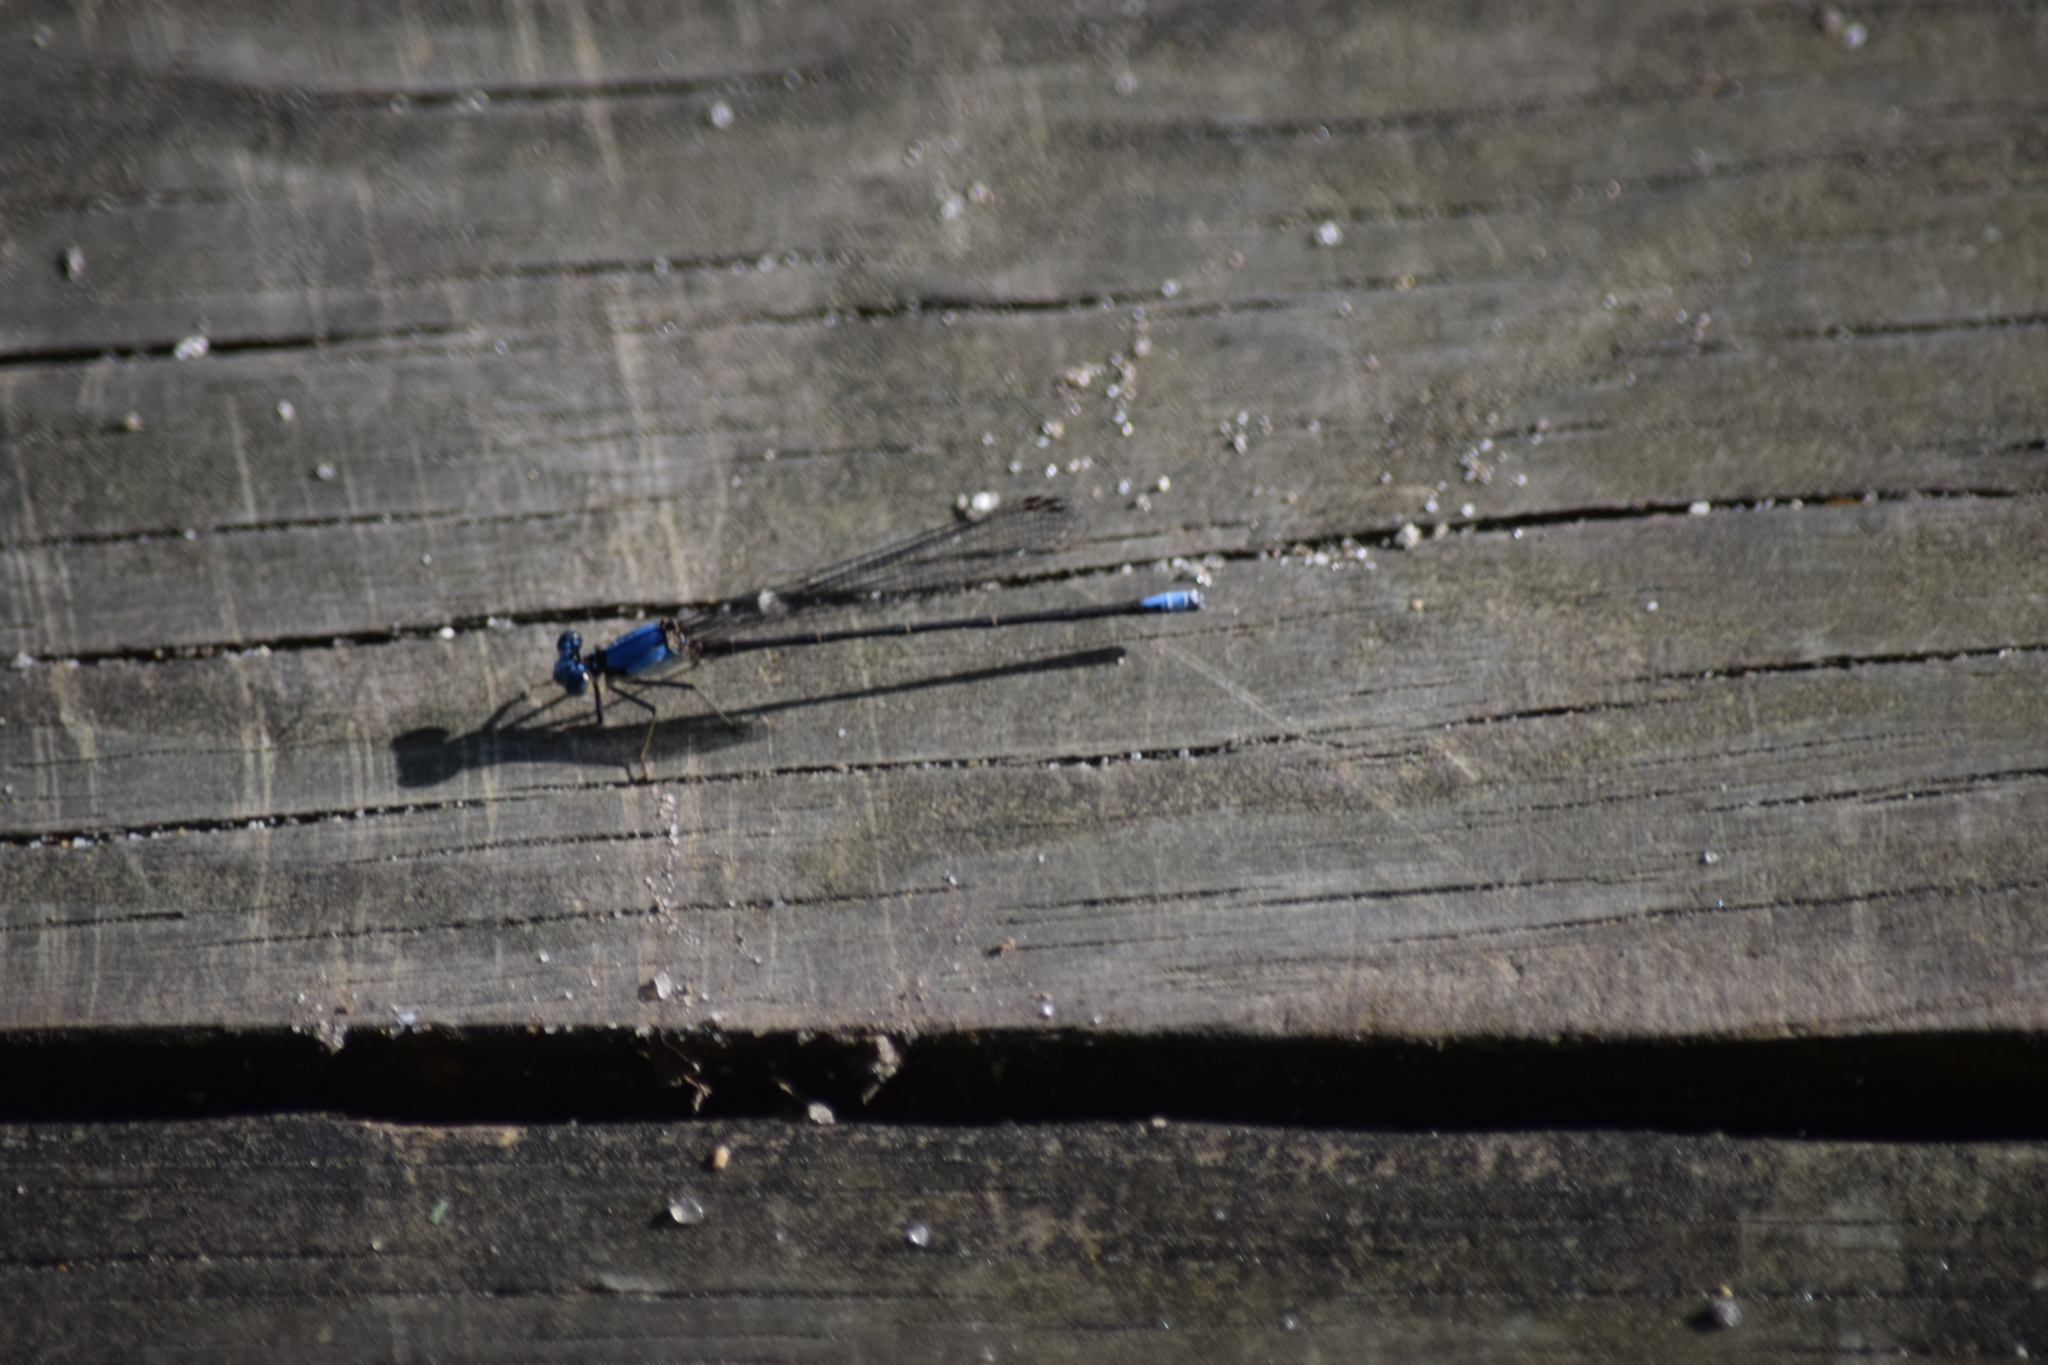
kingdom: Animalia
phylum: Arthropoda
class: Insecta
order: Odonata
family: Coenagrionidae
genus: Argia
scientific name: Argia apicalis
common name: Blue-fronted dancer
